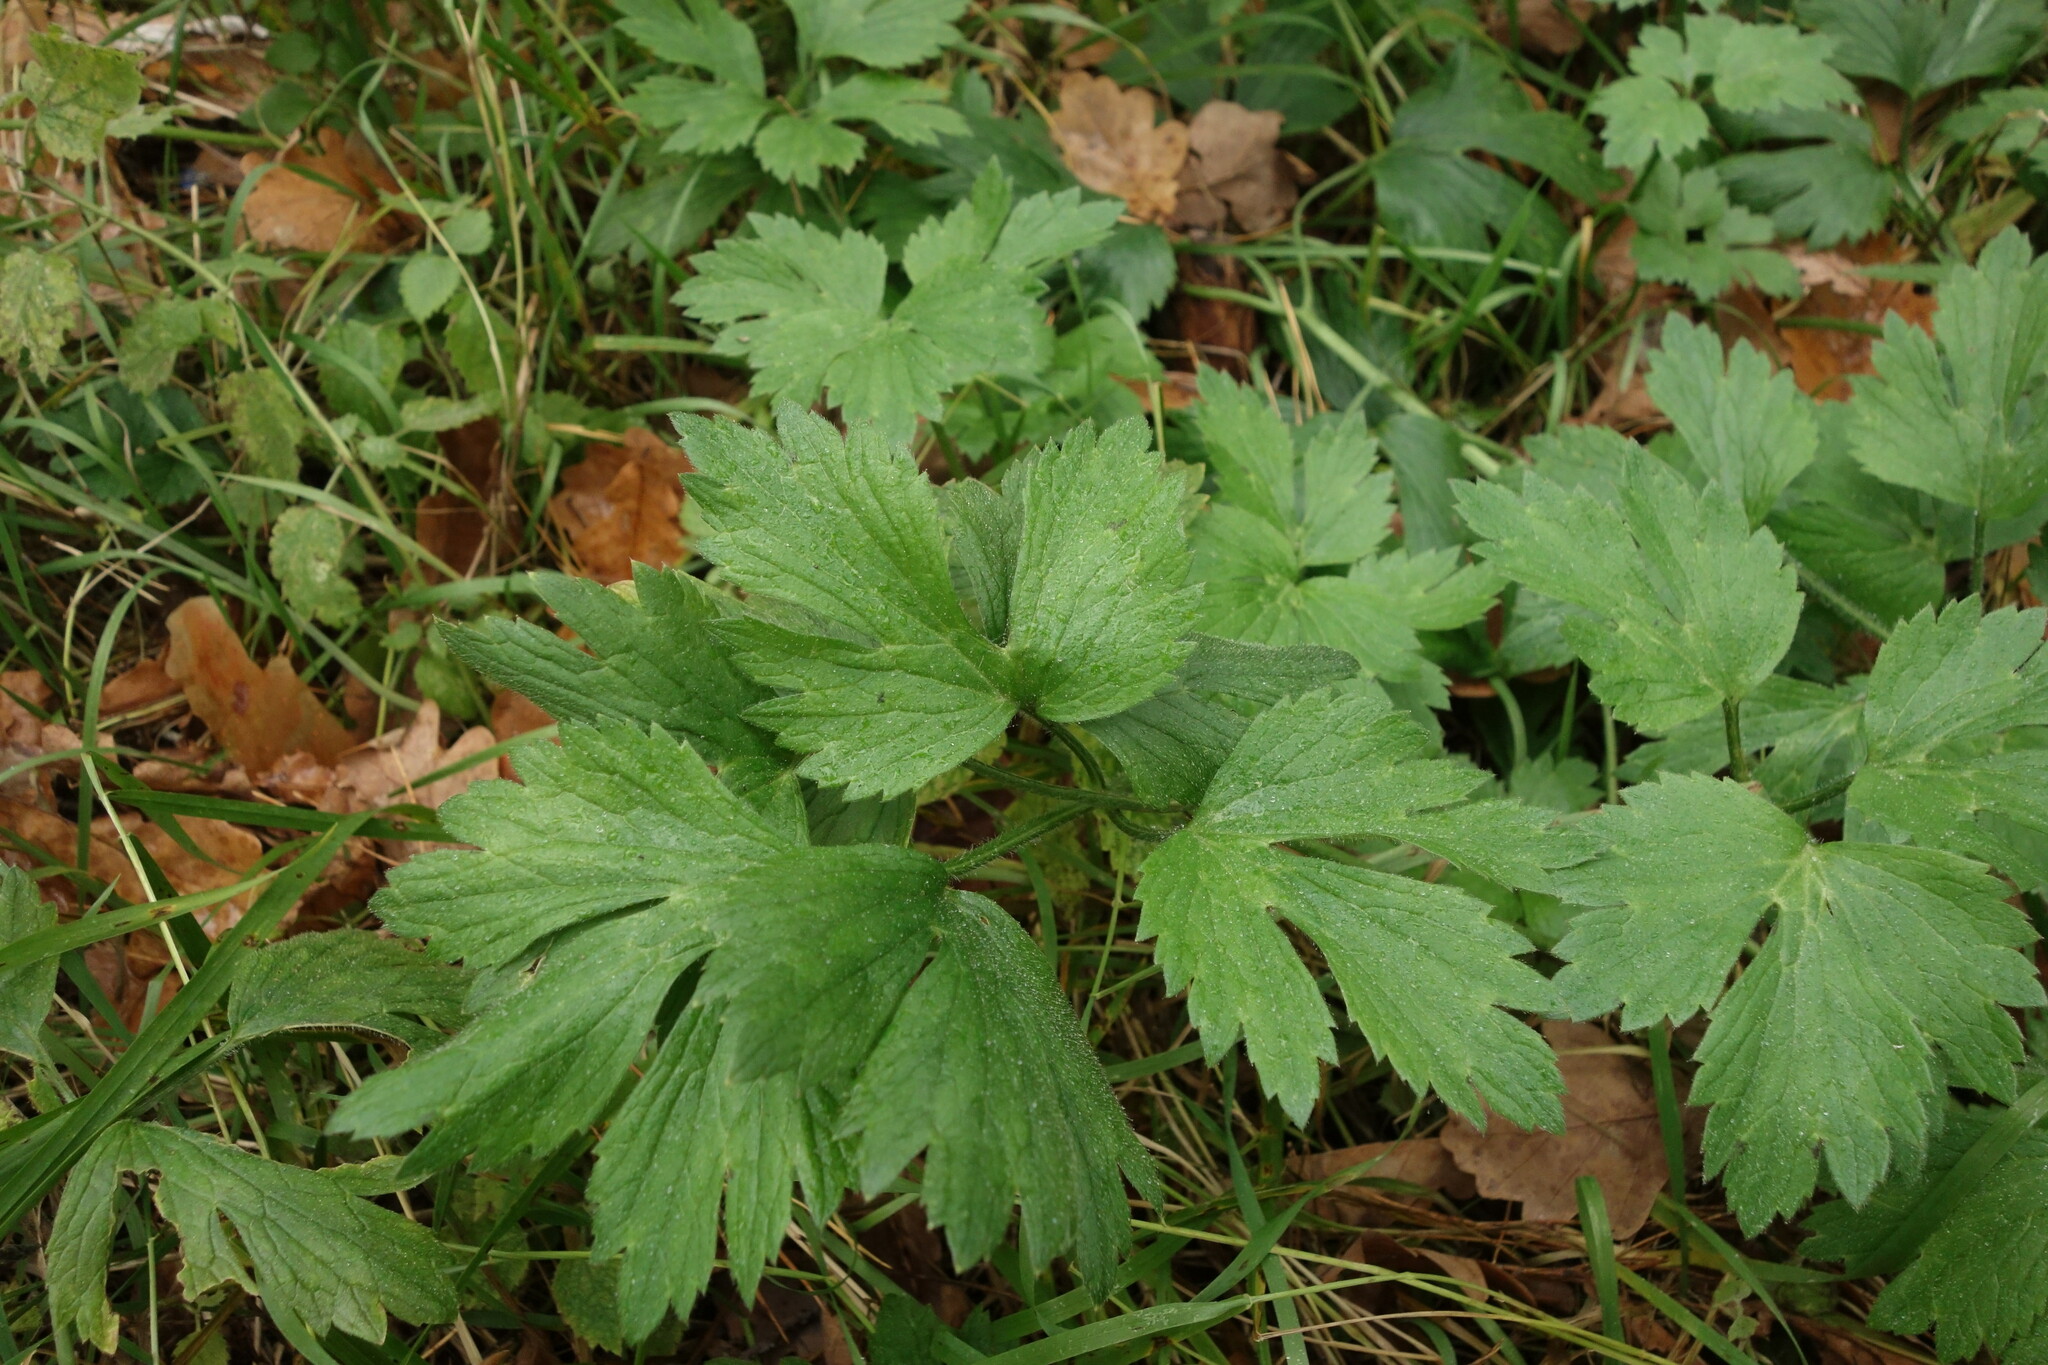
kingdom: Plantae
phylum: Tracheophyta
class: Magnoliopsida
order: Ranunculales
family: Ranunculaceae
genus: Ranunculus
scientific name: Ranunculus repens
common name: Creeping buttercup
